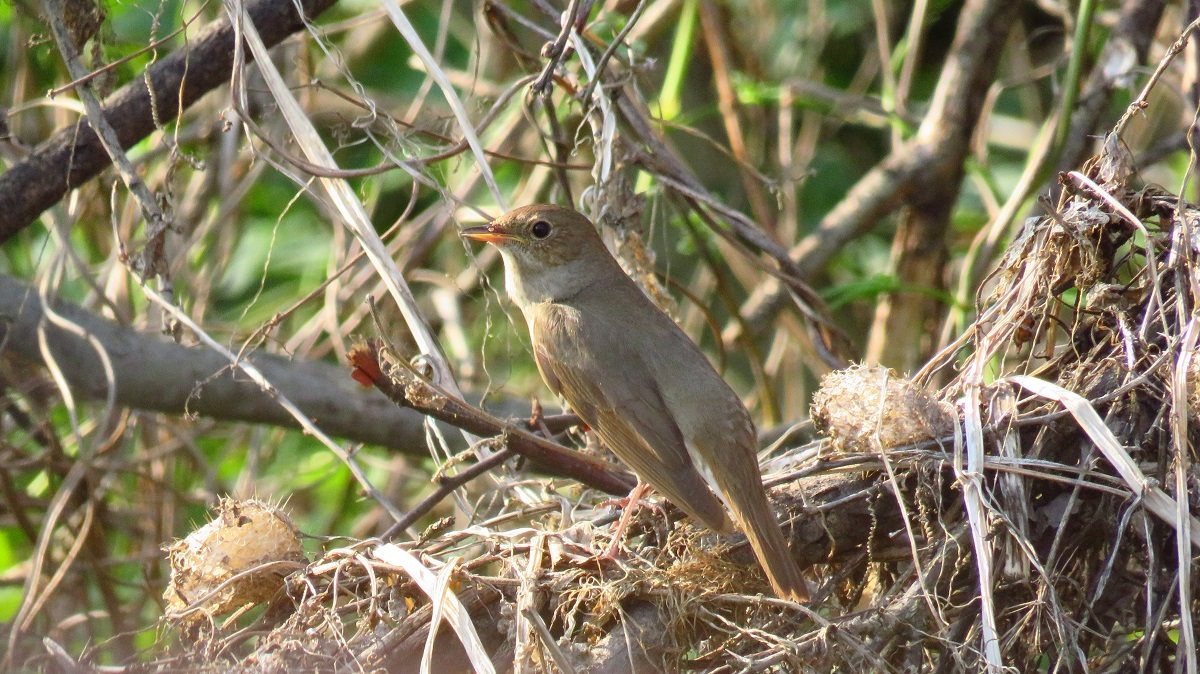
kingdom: Animalia
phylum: Chordata
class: Aves
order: Passeriformes
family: Muscicapidae
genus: Luscinia
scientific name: Luscinia luscinia
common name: Thrush nightingale
